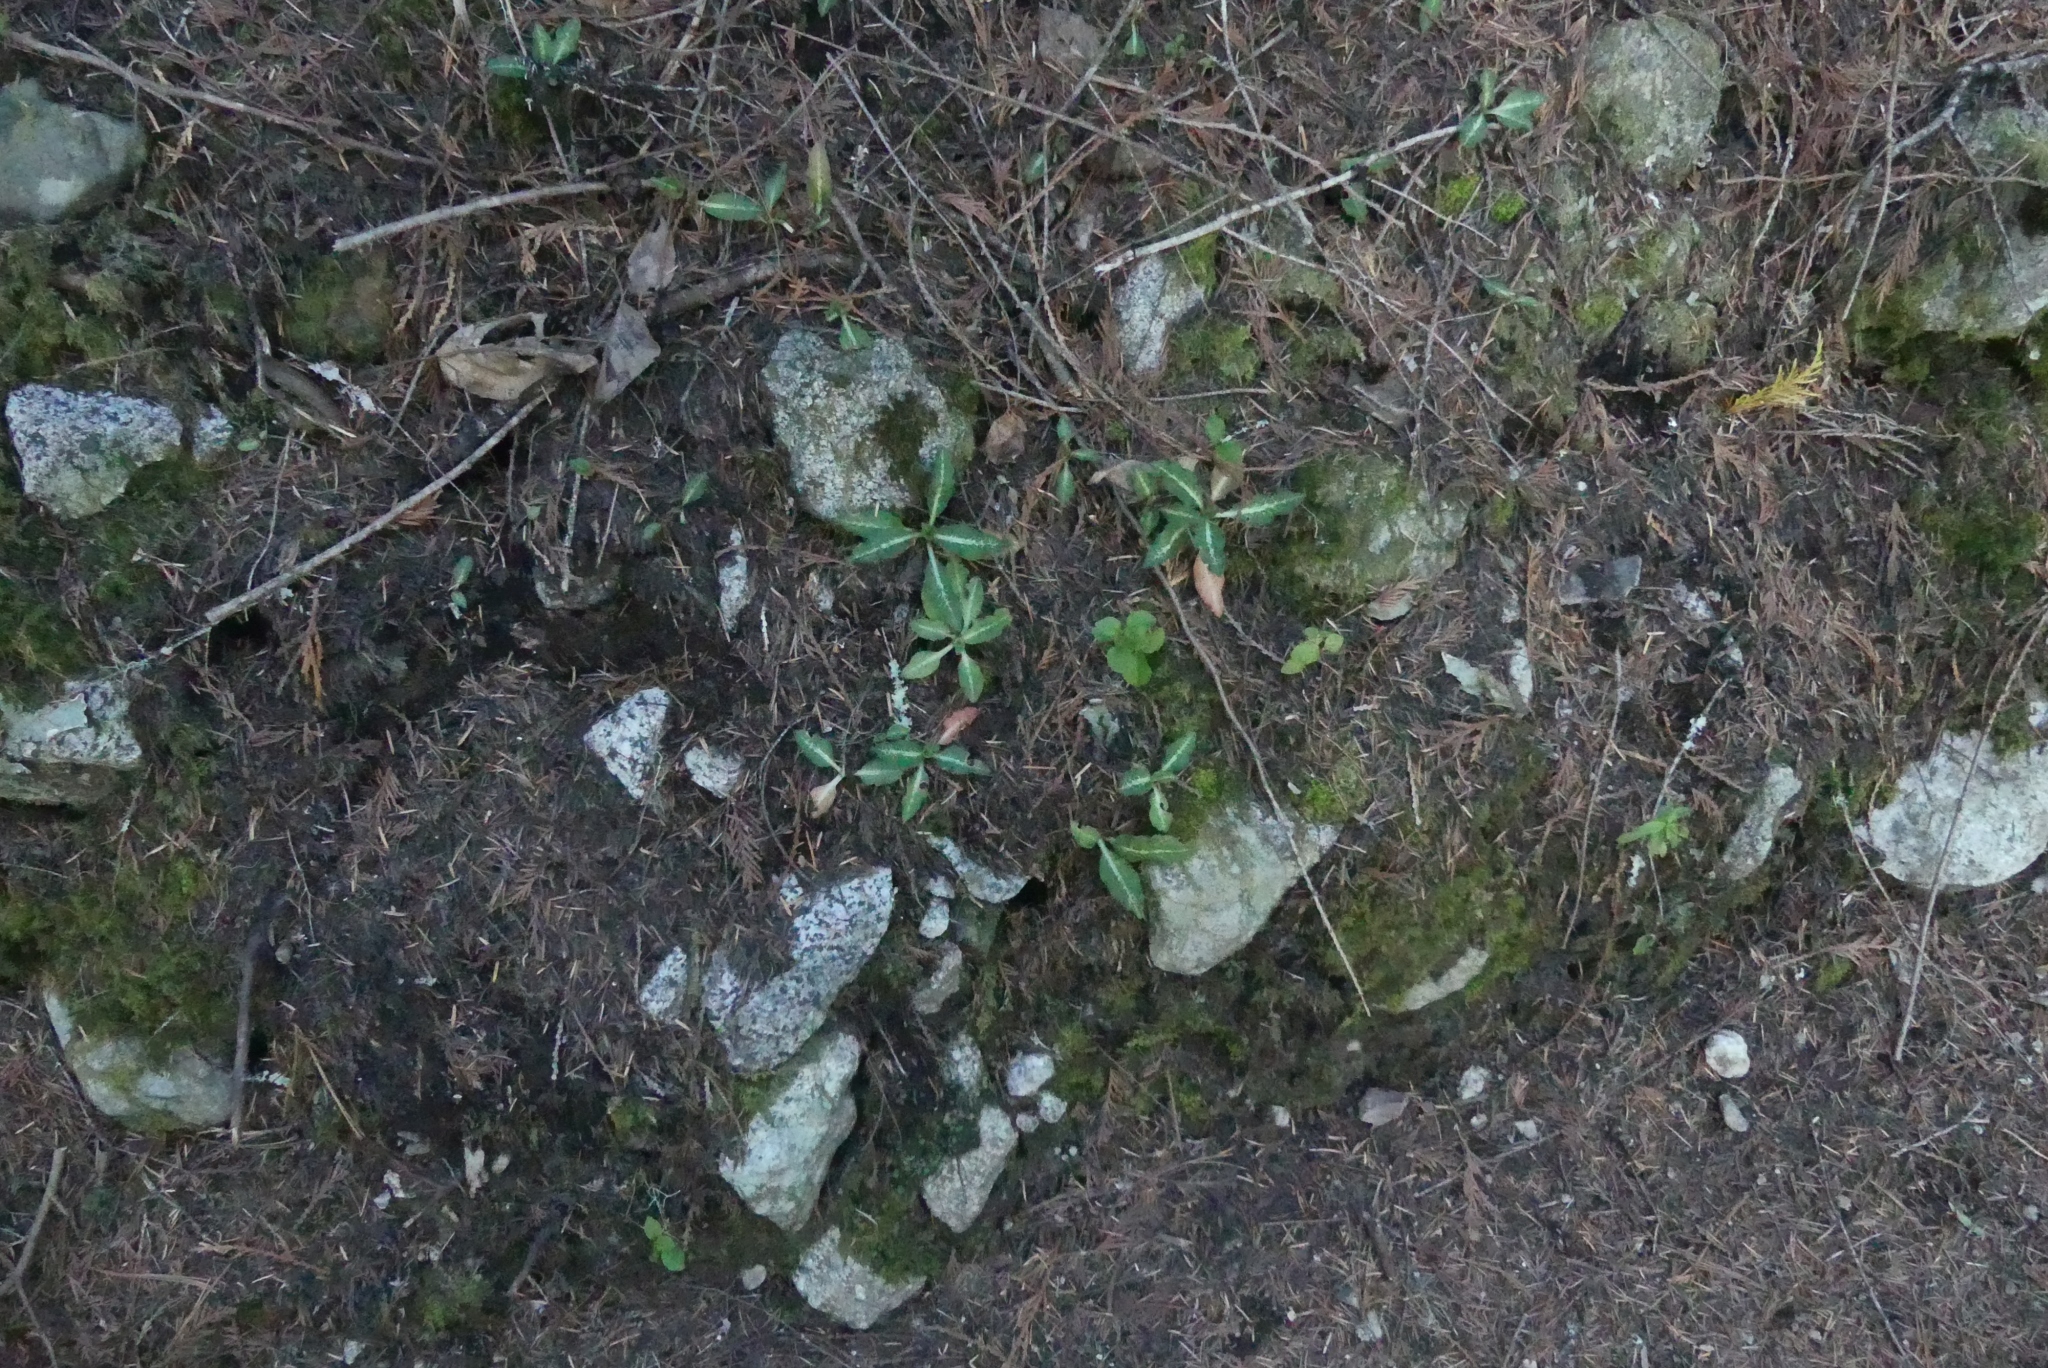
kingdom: Plantae
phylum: Tracheophyta
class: Liliopsida
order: Asparagales
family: Orchidaceae
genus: Goodyera
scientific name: Goodyera oblongifolia
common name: Giant rattlesnake-plantain
